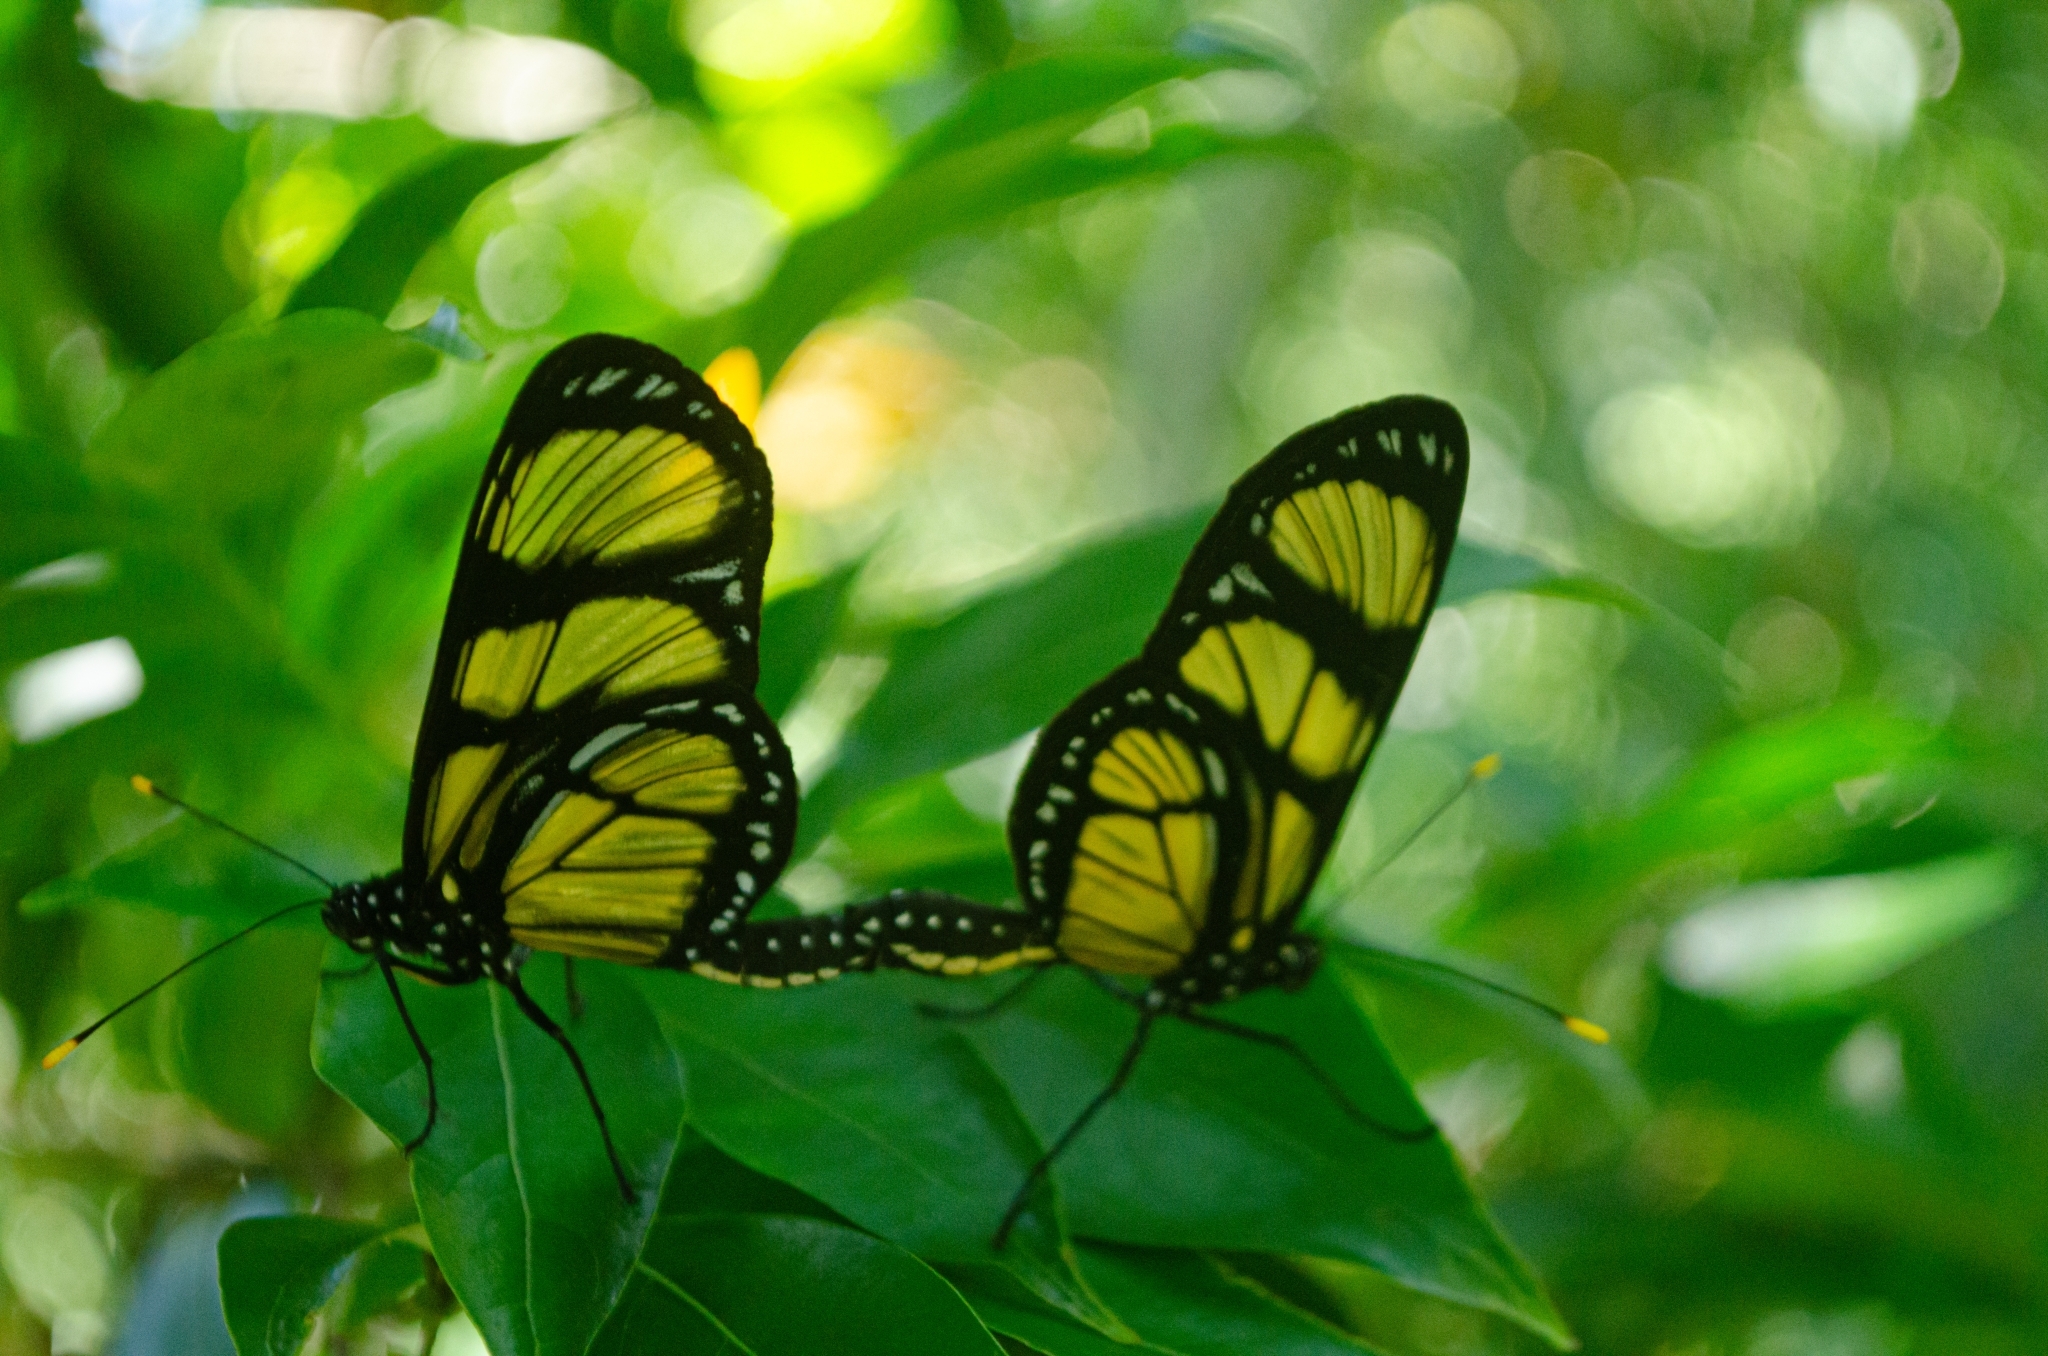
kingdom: Animalia
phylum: Arthropoda
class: Insecta
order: Lepidoptera
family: Nymphalidae
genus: Methona
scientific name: Methona themisto
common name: Themisto amberwing
